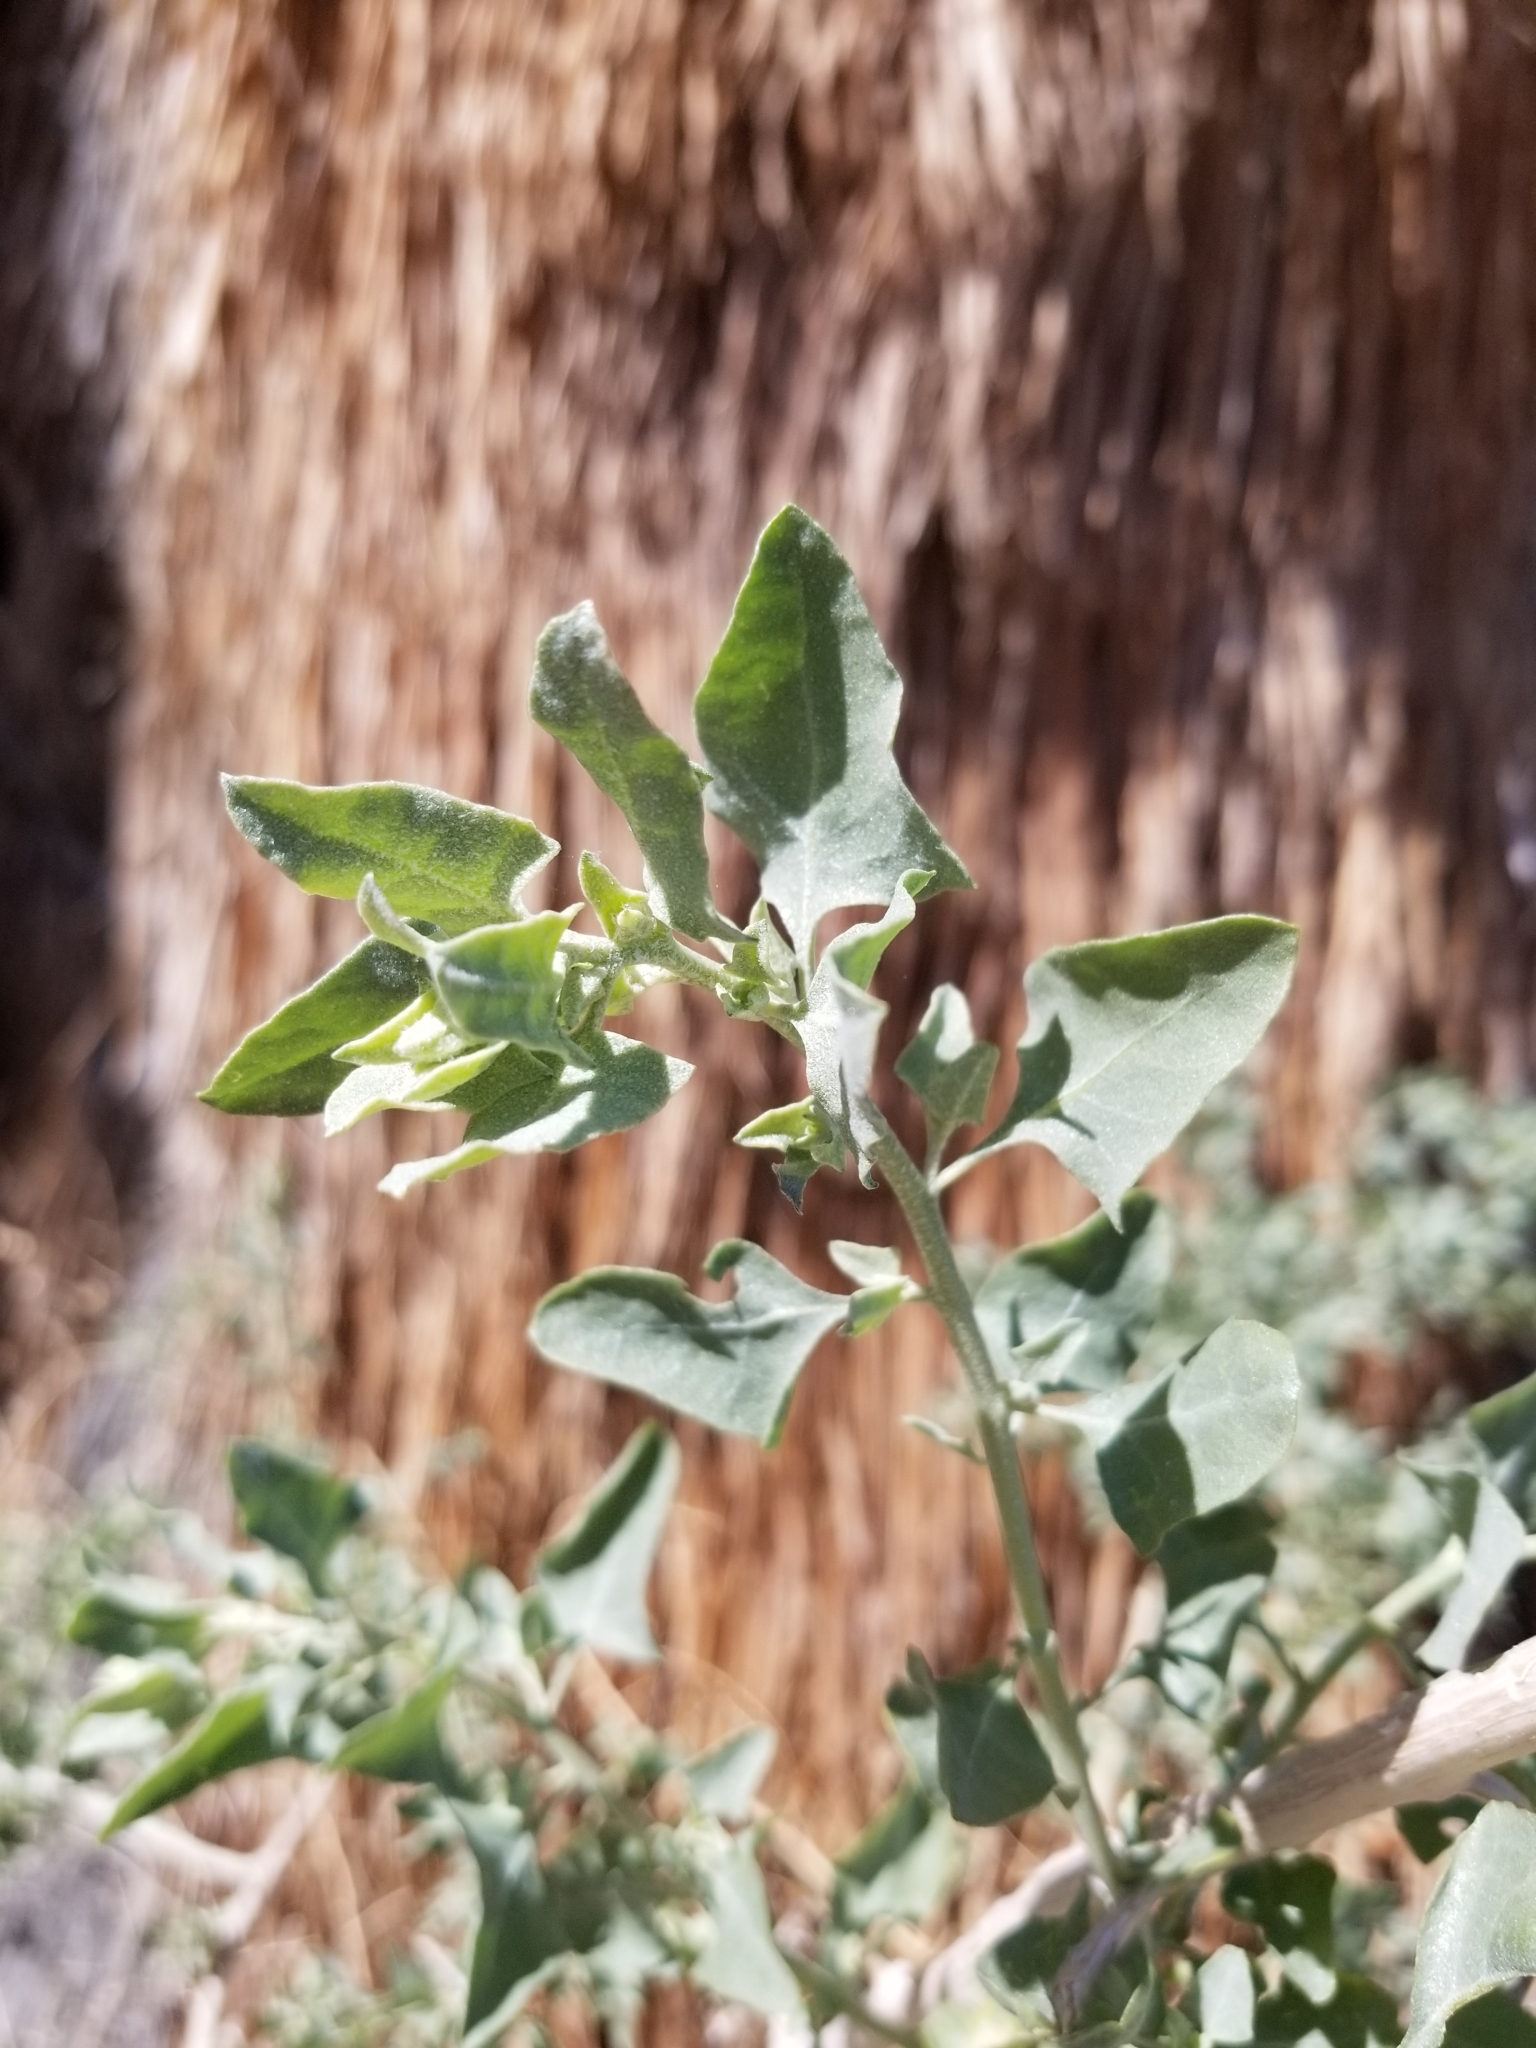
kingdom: Plantae
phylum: Tracheophyta
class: Magnoliopsida
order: Caryophyllales
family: Amaranthaceae
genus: Atriplex
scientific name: Atriplex lentiformis
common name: Big saltbush
